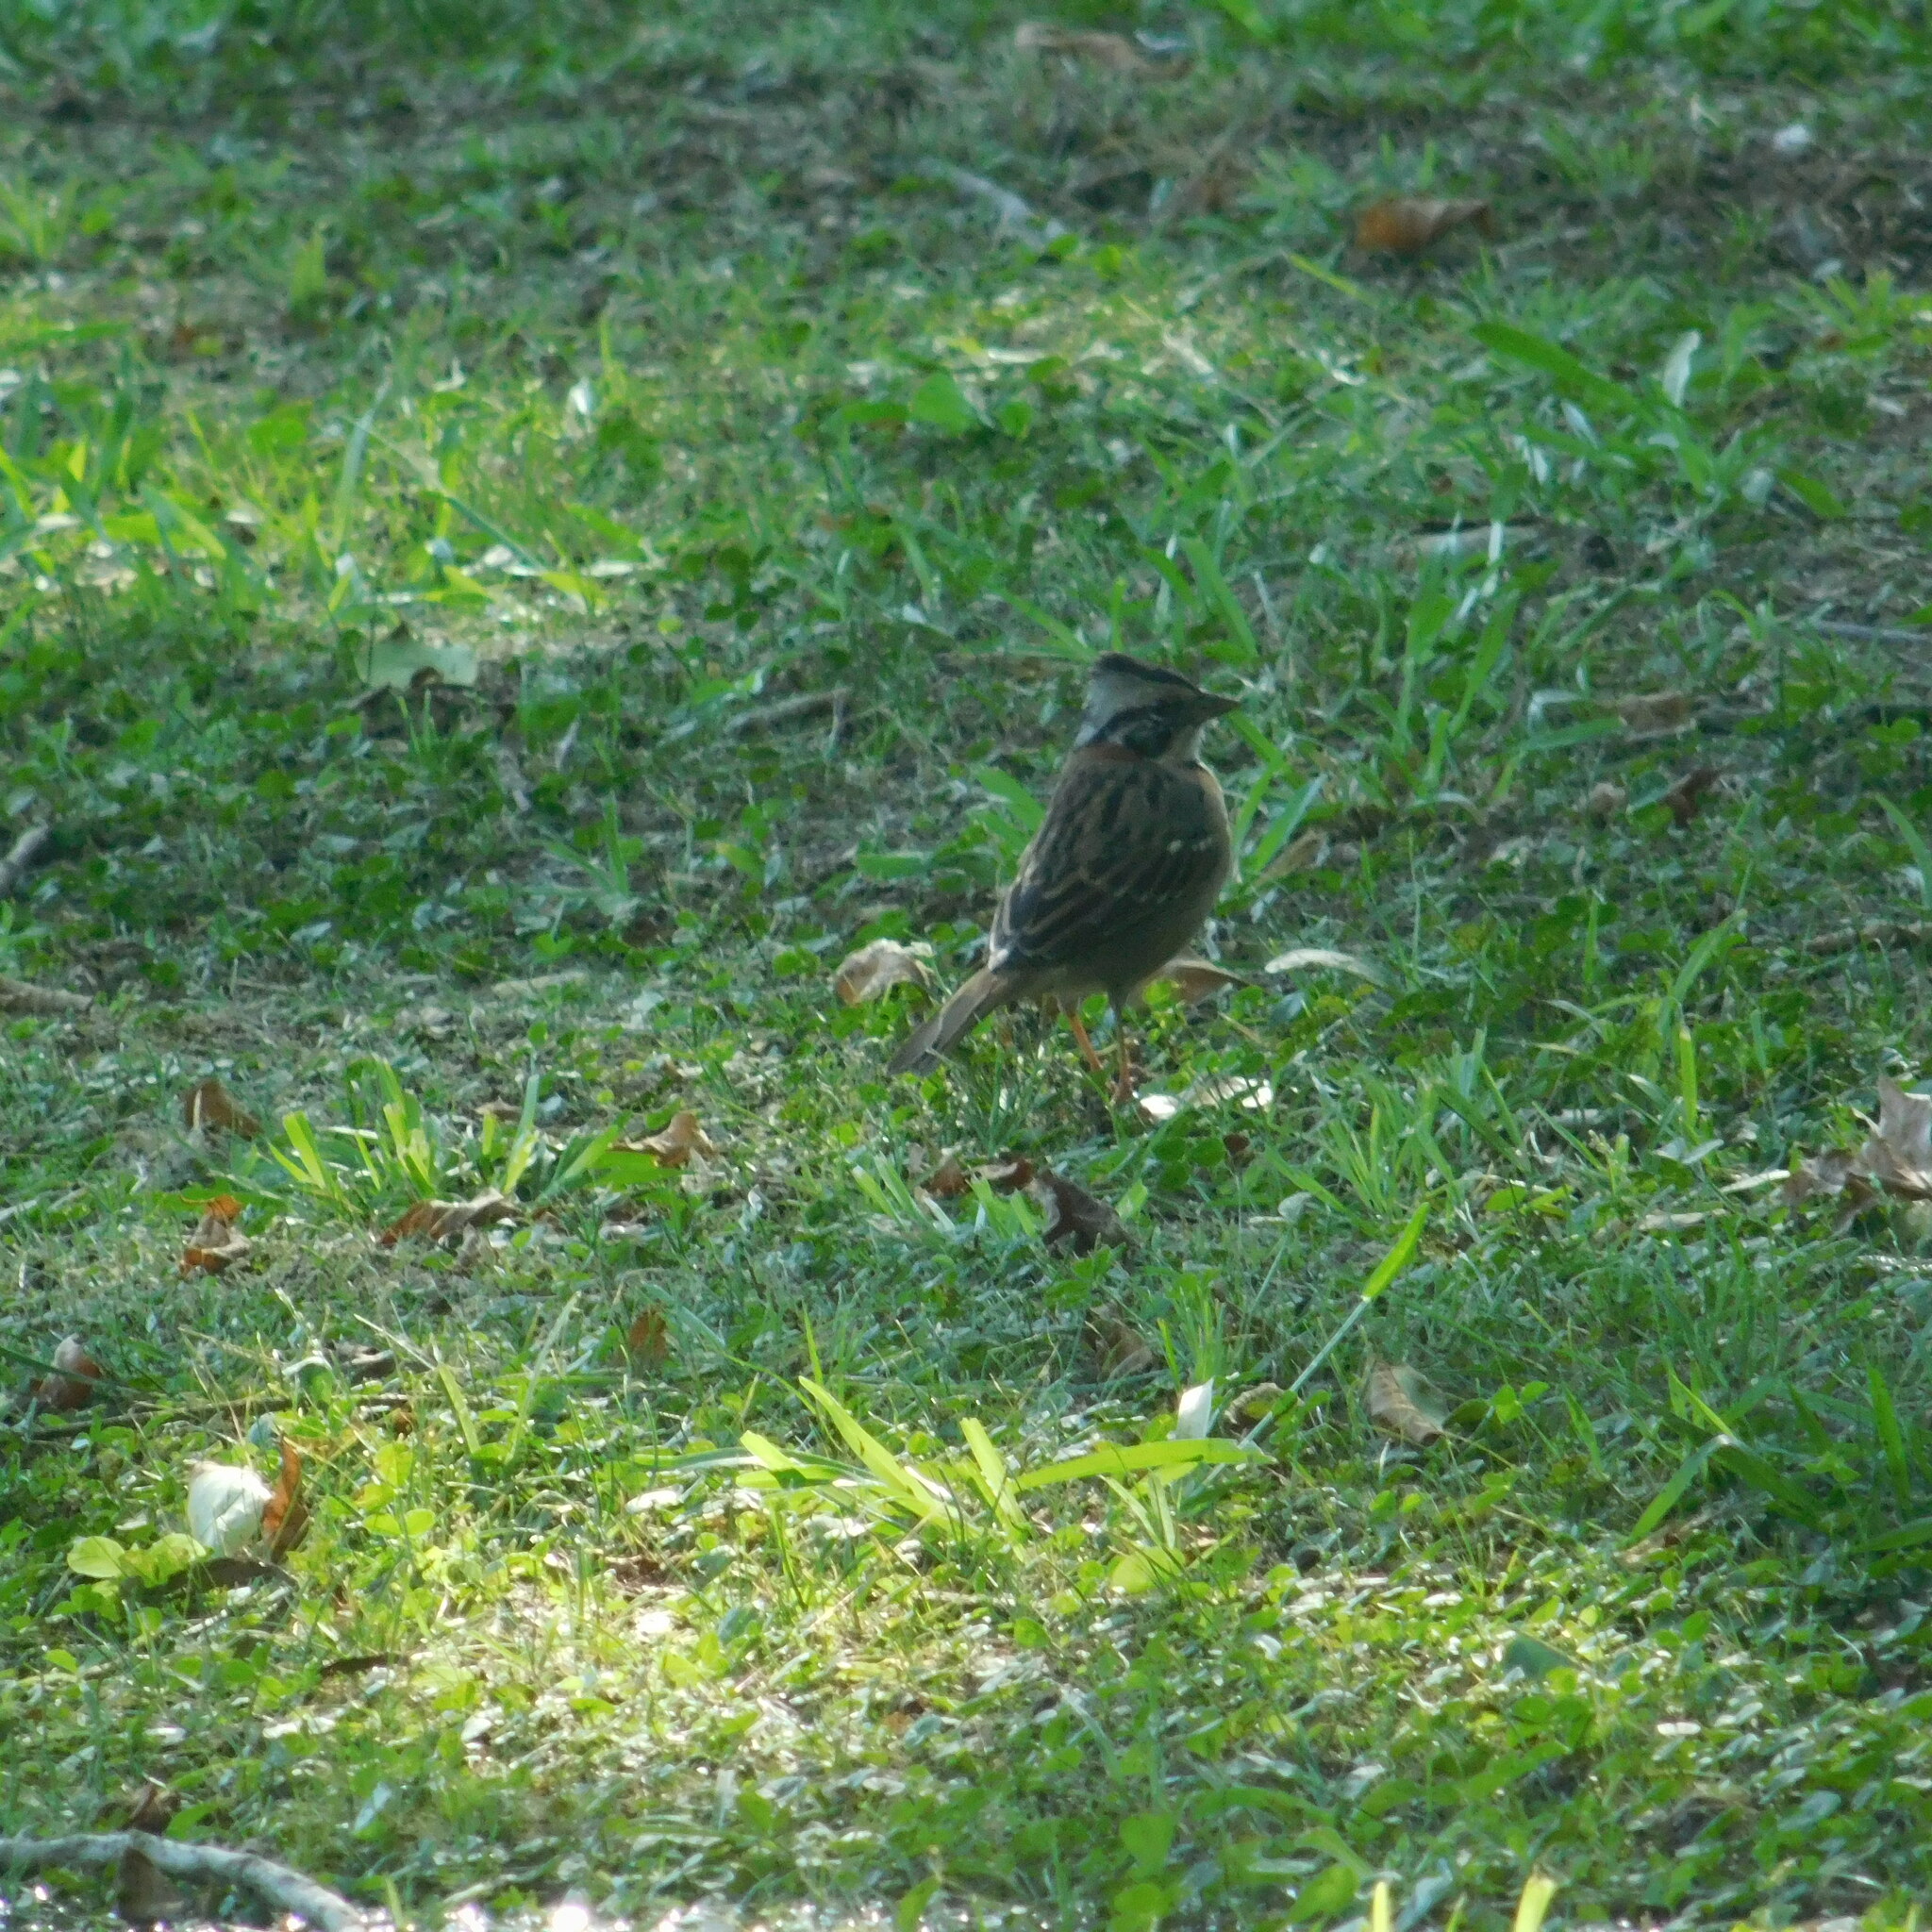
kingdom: Animalia
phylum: Chordata
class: Aves
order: Passeriformes
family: Passerellidae
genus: Zonotrichia
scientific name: Zonotrichia capensis
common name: Rufous-collared sparrow
